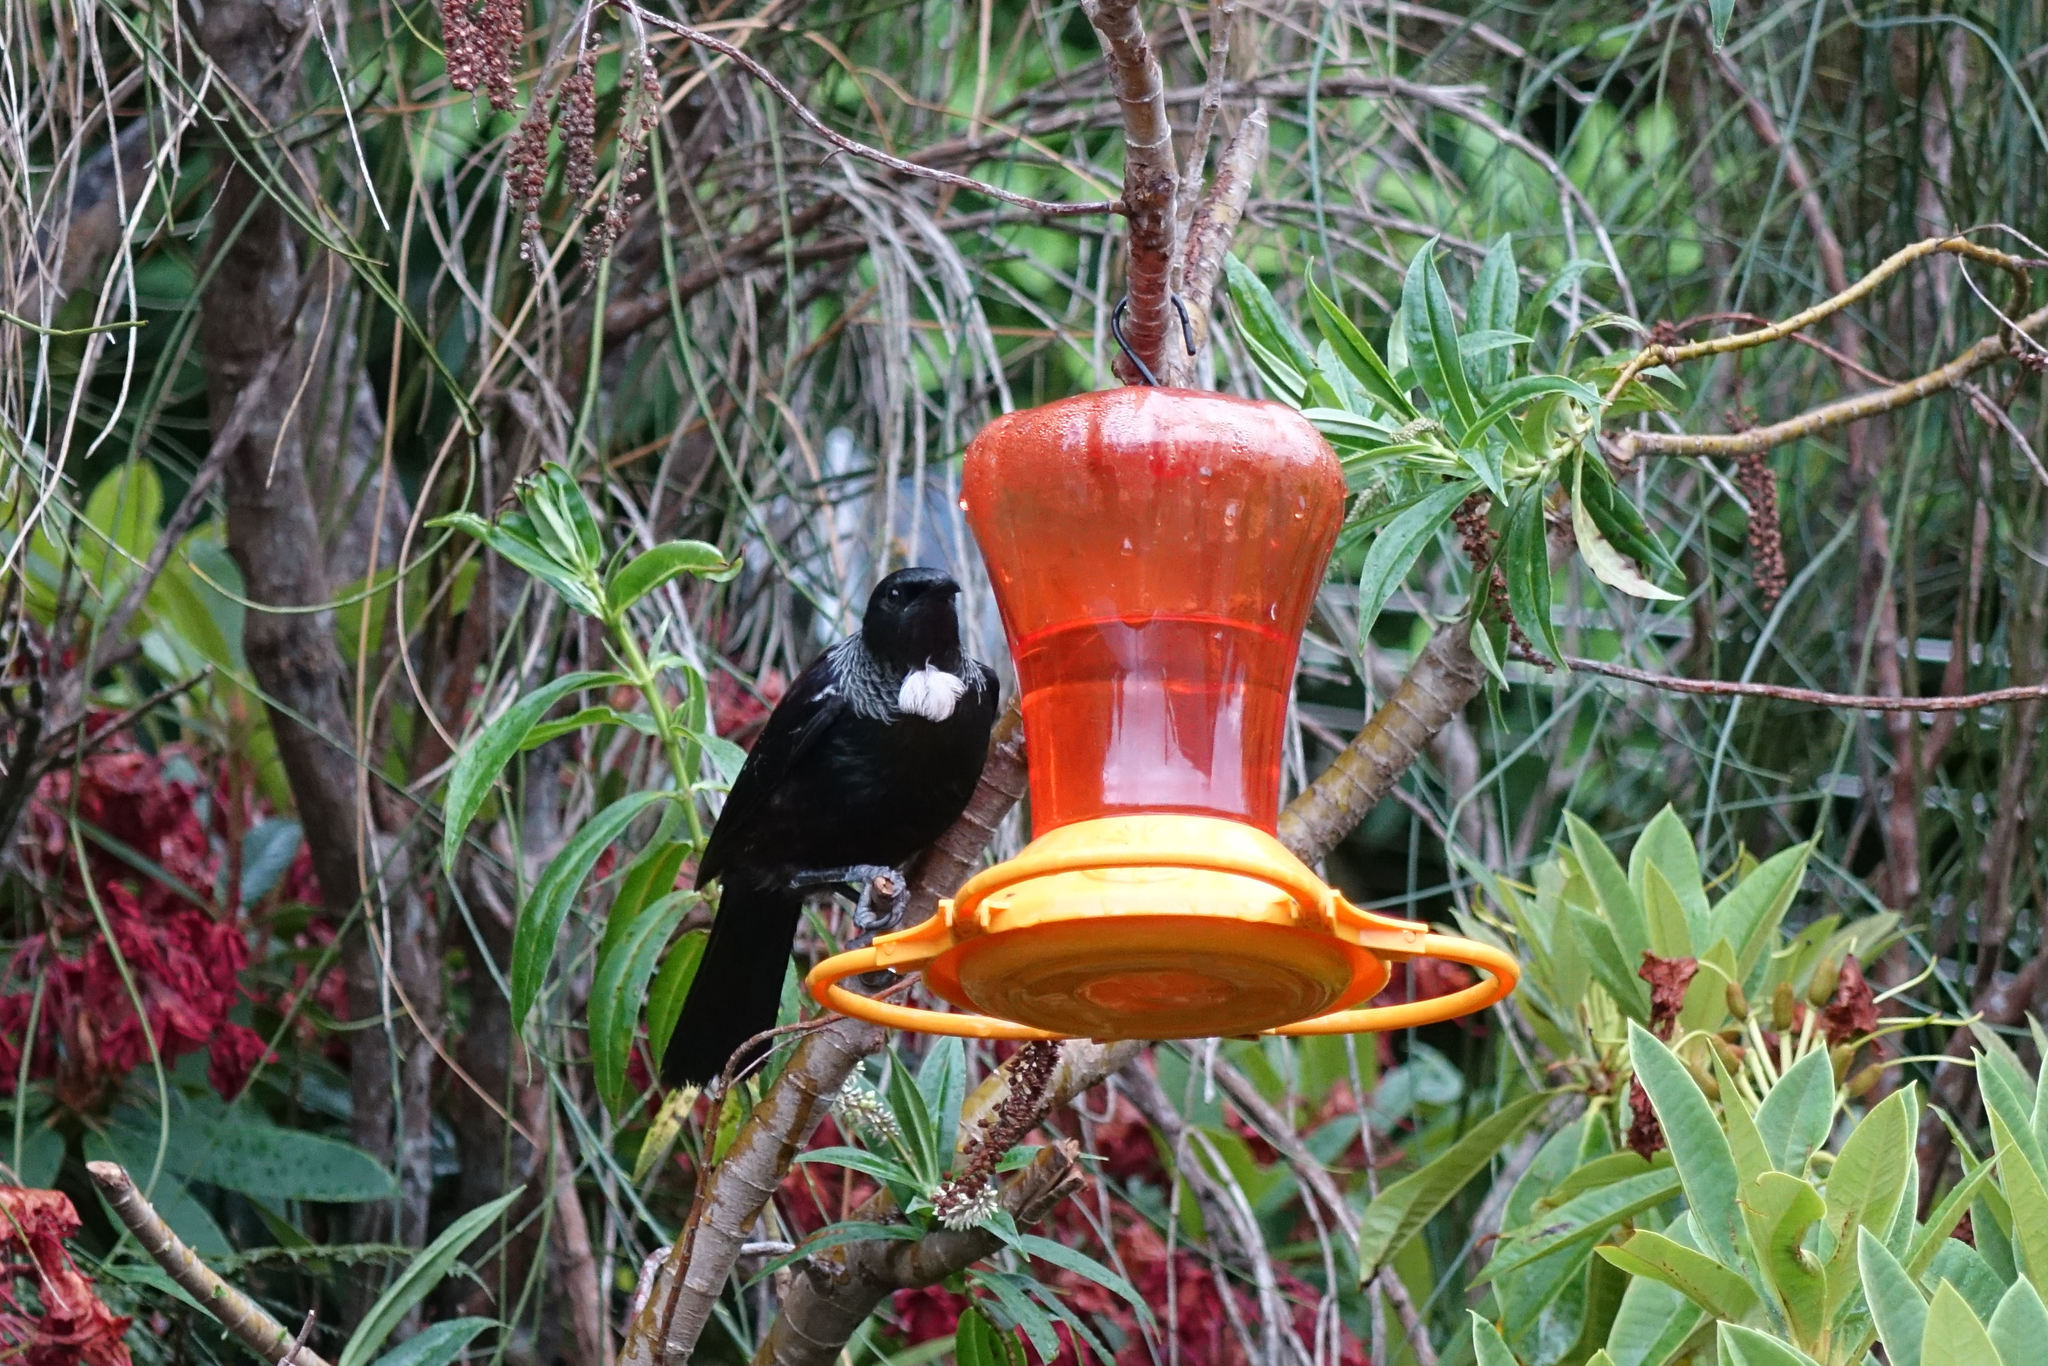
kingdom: Animalia
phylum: Chordata
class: Aves
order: Passeriformes
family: Meliphagidae
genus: Prosthemadera
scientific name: Prosthemadera novaeseelandiae
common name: Tui
